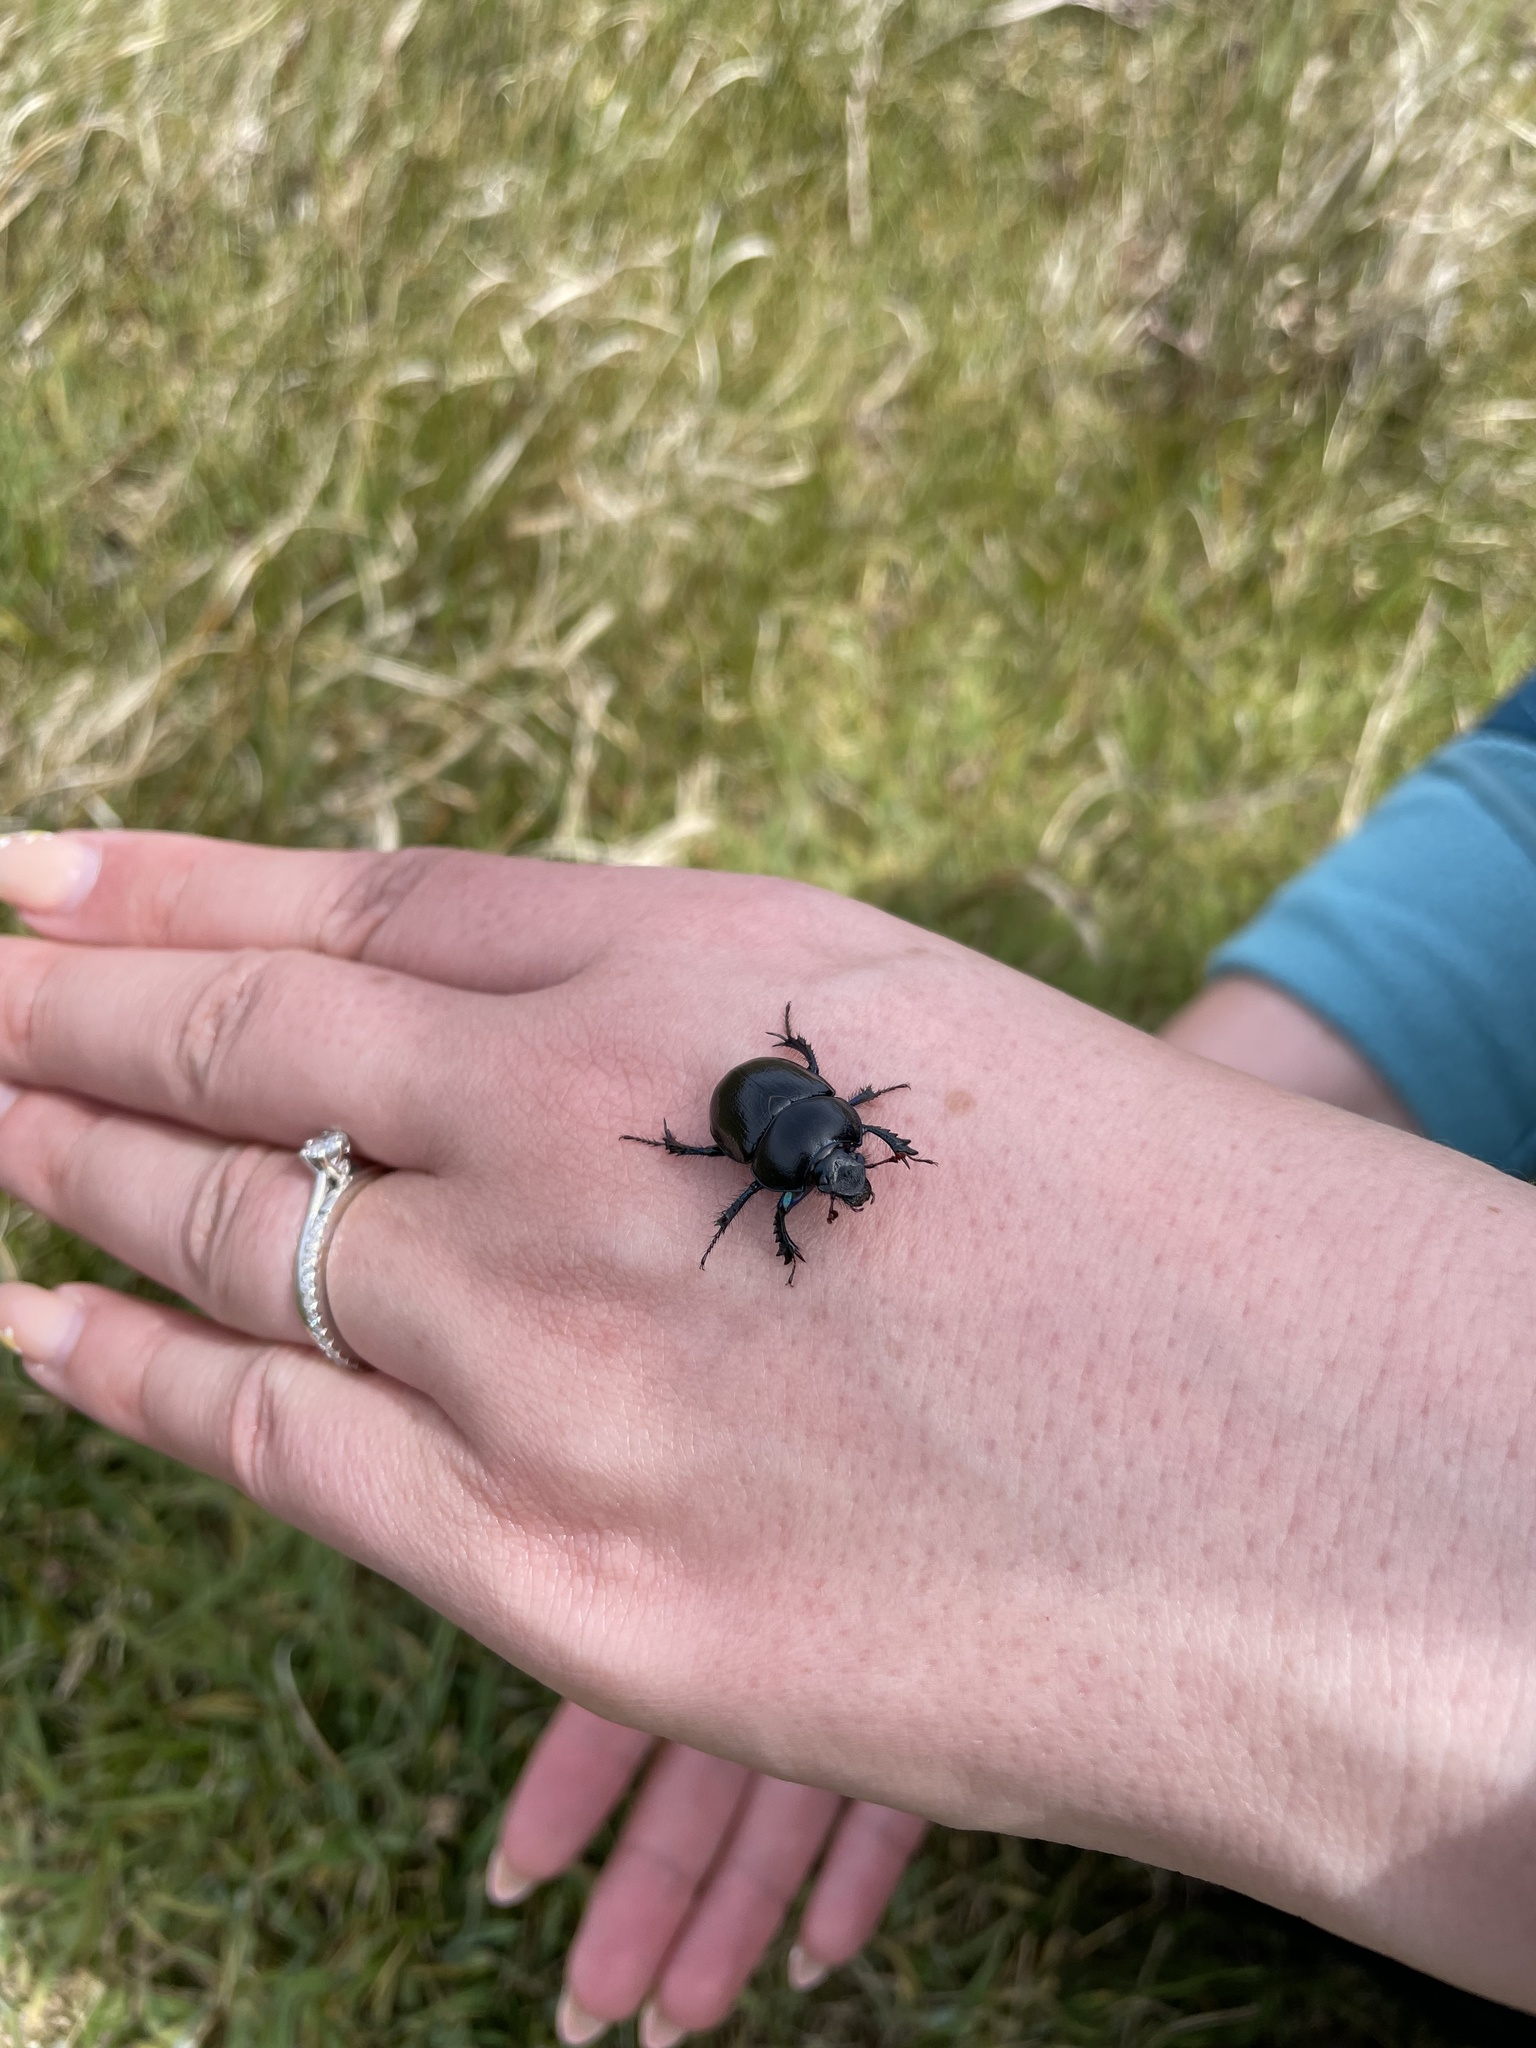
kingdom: Animalia
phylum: Arthropoda
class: Insecta
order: Coleoptera
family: Geotrupidae
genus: Anoplotrupes
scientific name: Anoplotrupes stercorosus
